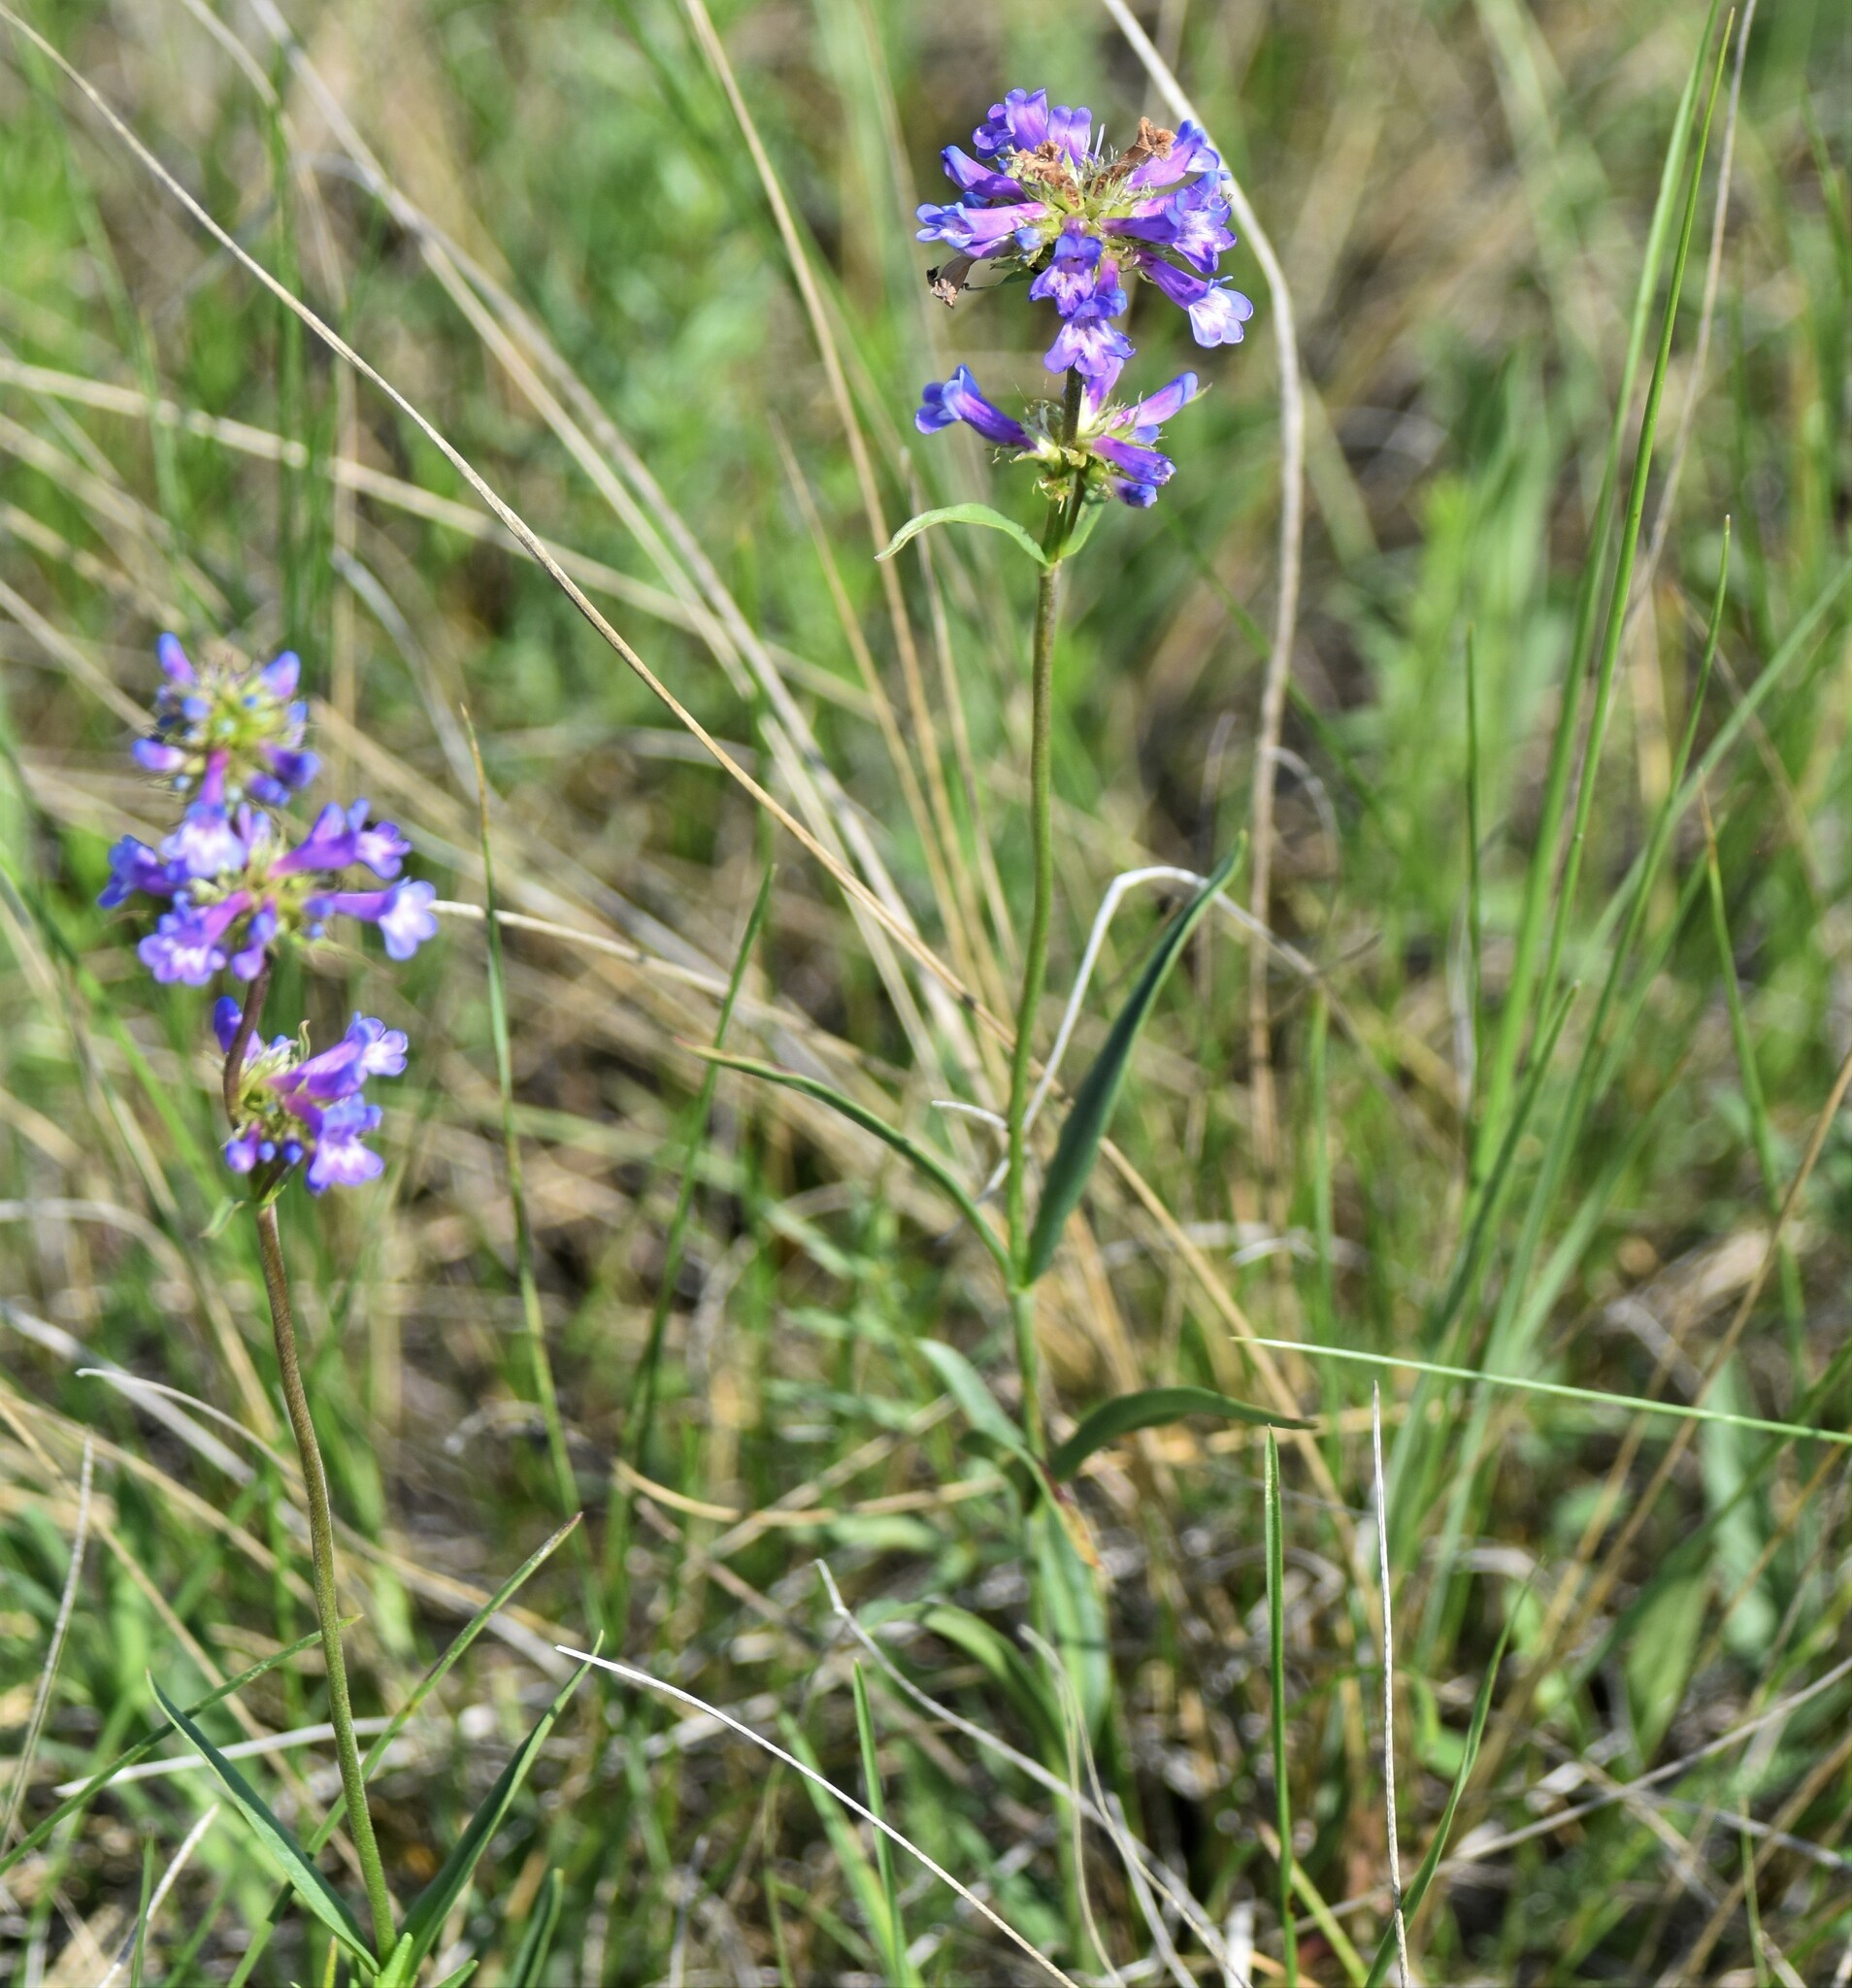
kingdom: Plantae
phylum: Tracheophyta
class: Magnoliopsida
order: Lamiales
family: Plantaginaceae
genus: Penstemon
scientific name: Penstemon procerus
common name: Small-flower penstemon
